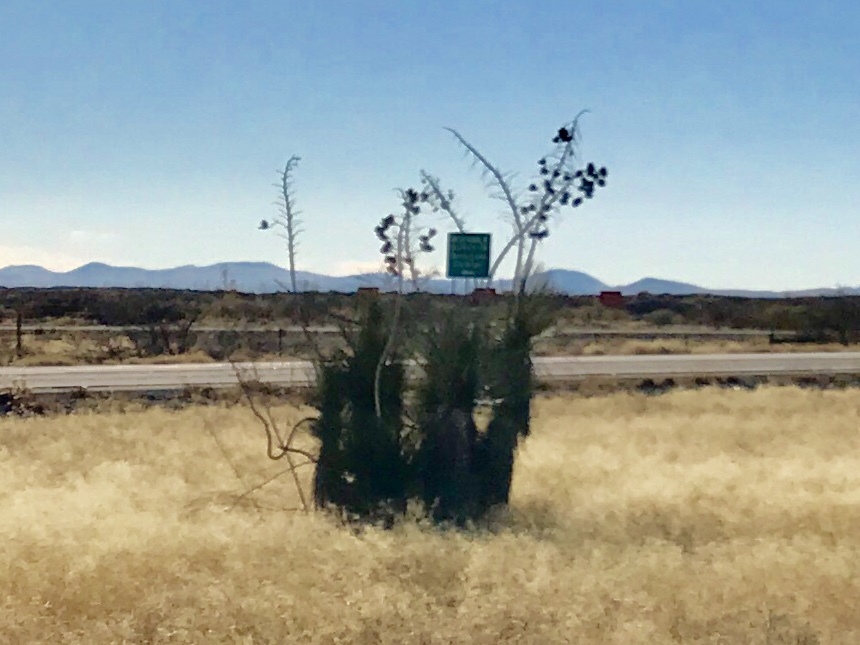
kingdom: Plantae
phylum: Tracheophyta
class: Liliopsida
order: Asparagales
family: Asparagaceae
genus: Yucca
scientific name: Yucca elata
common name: Palmella
